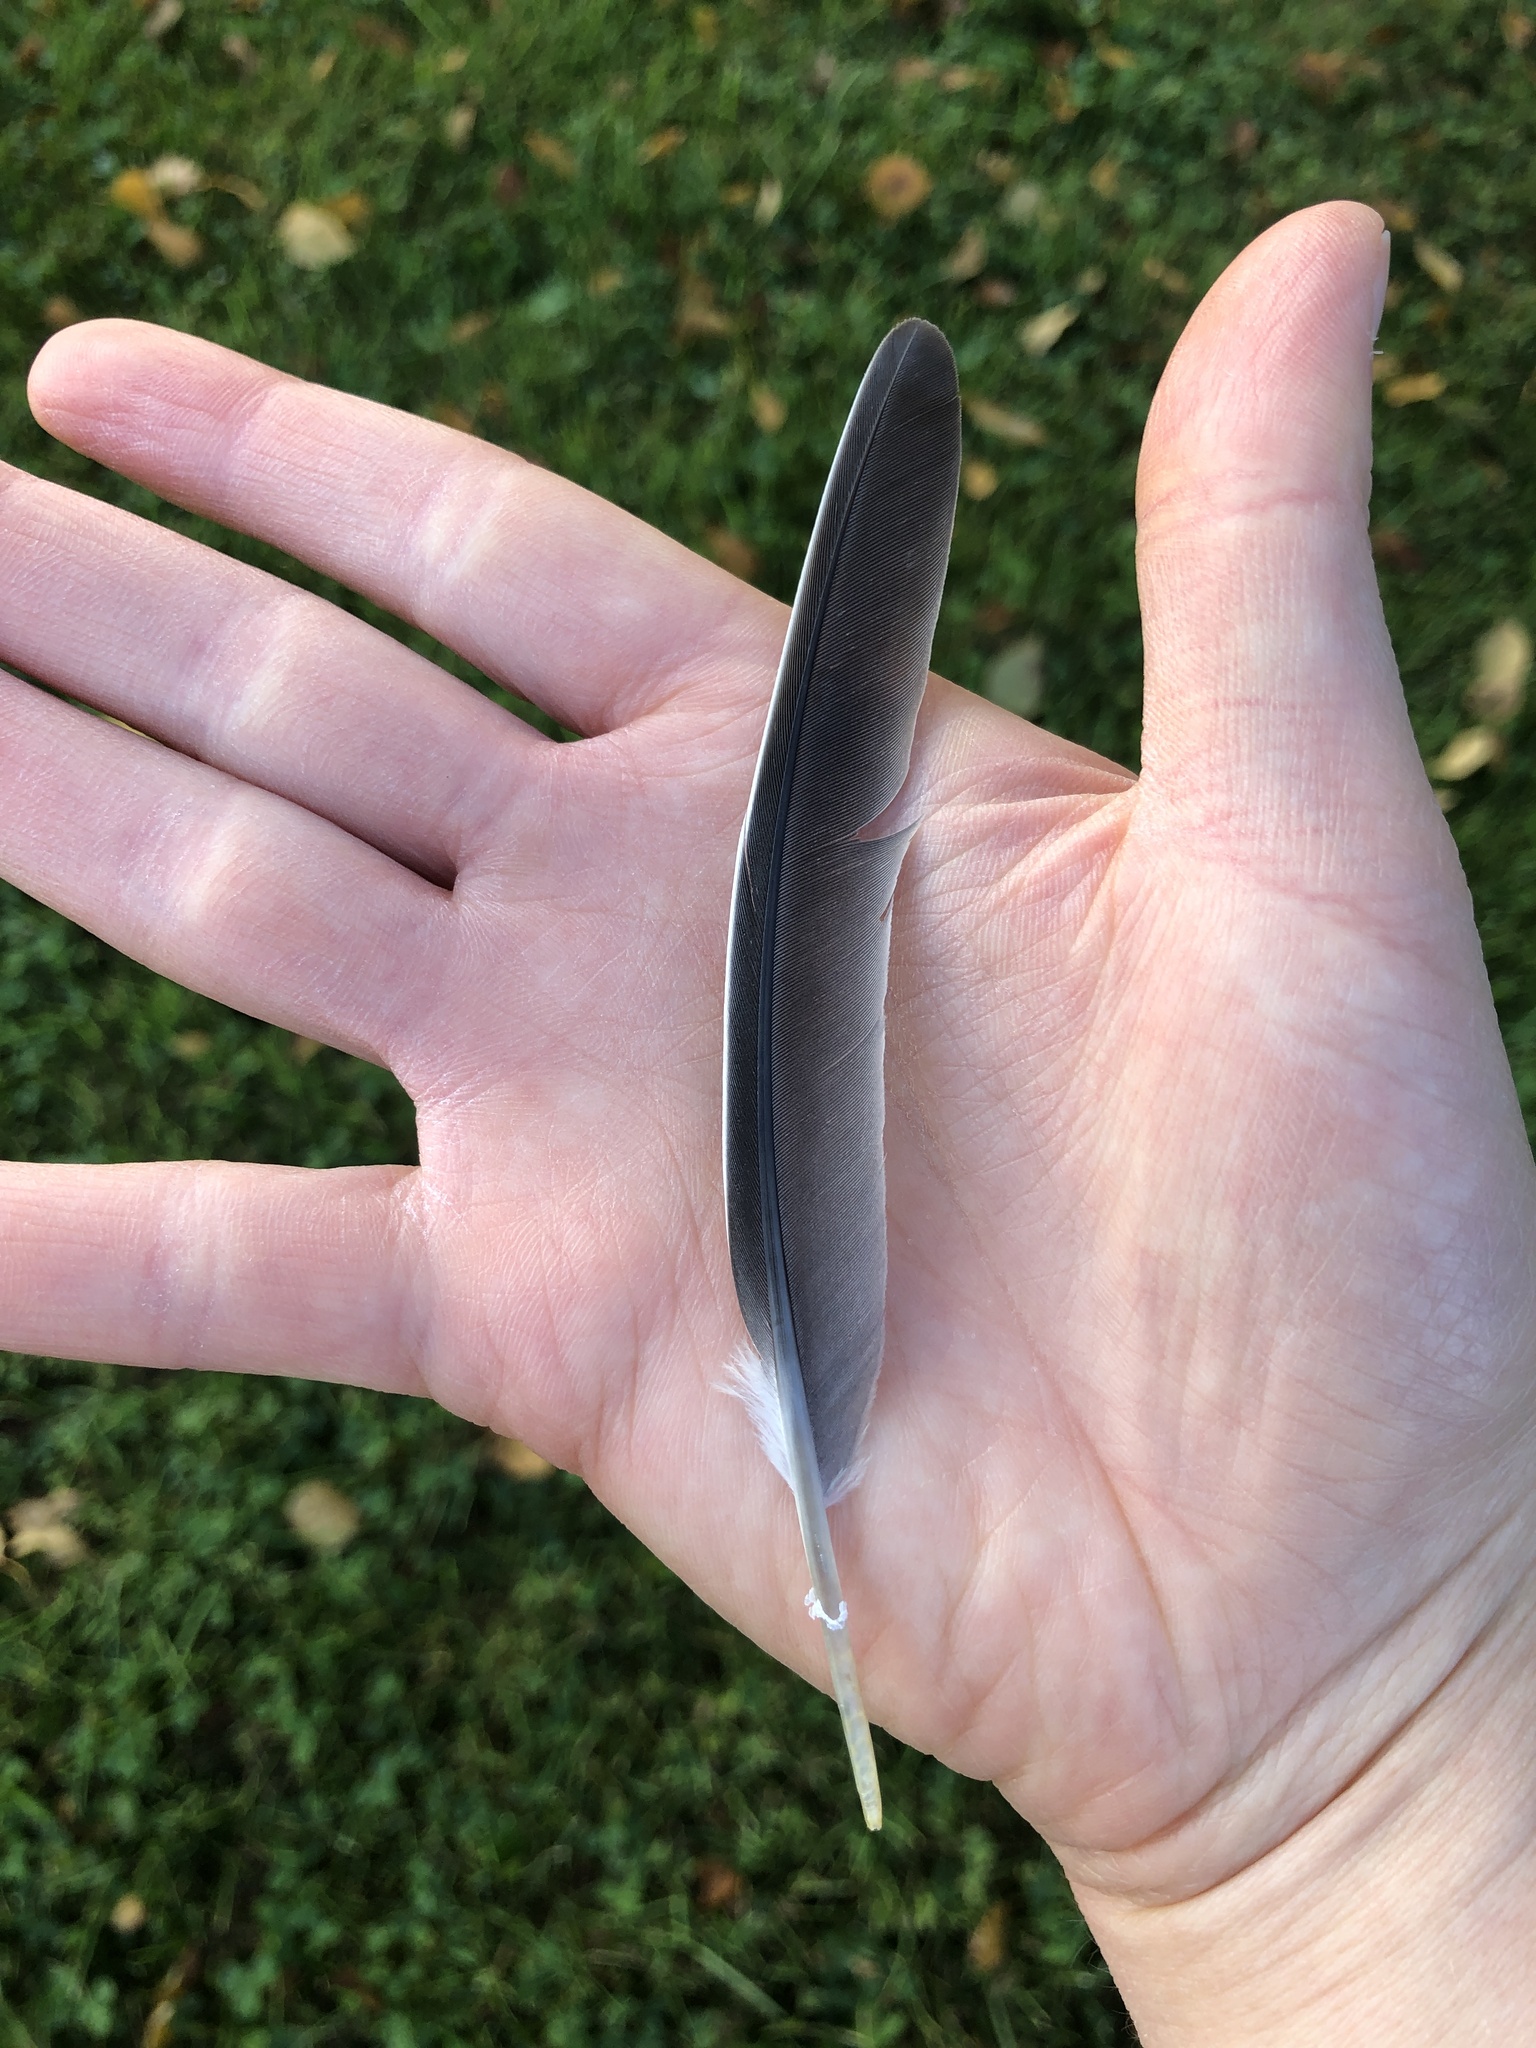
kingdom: Animalia
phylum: Chordata
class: Aves
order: Columbiformes
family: Columbidae
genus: Zenaida
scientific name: Zenaida macroura
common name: Mourning dove
